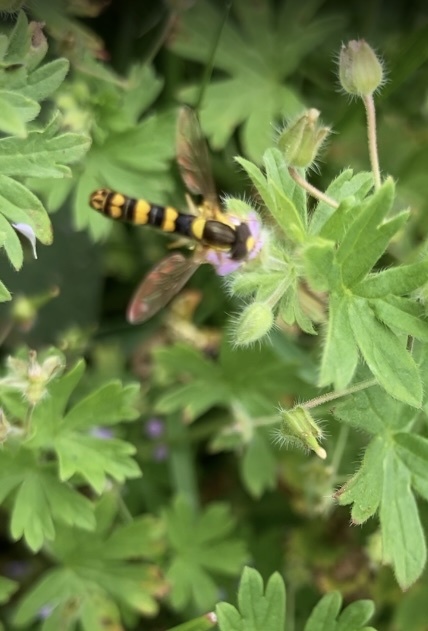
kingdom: Animalia
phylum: Arthropoda
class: Insecta
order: Diptera
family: Syrphidae
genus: Sphaerophoria
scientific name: Sphaerophoria
